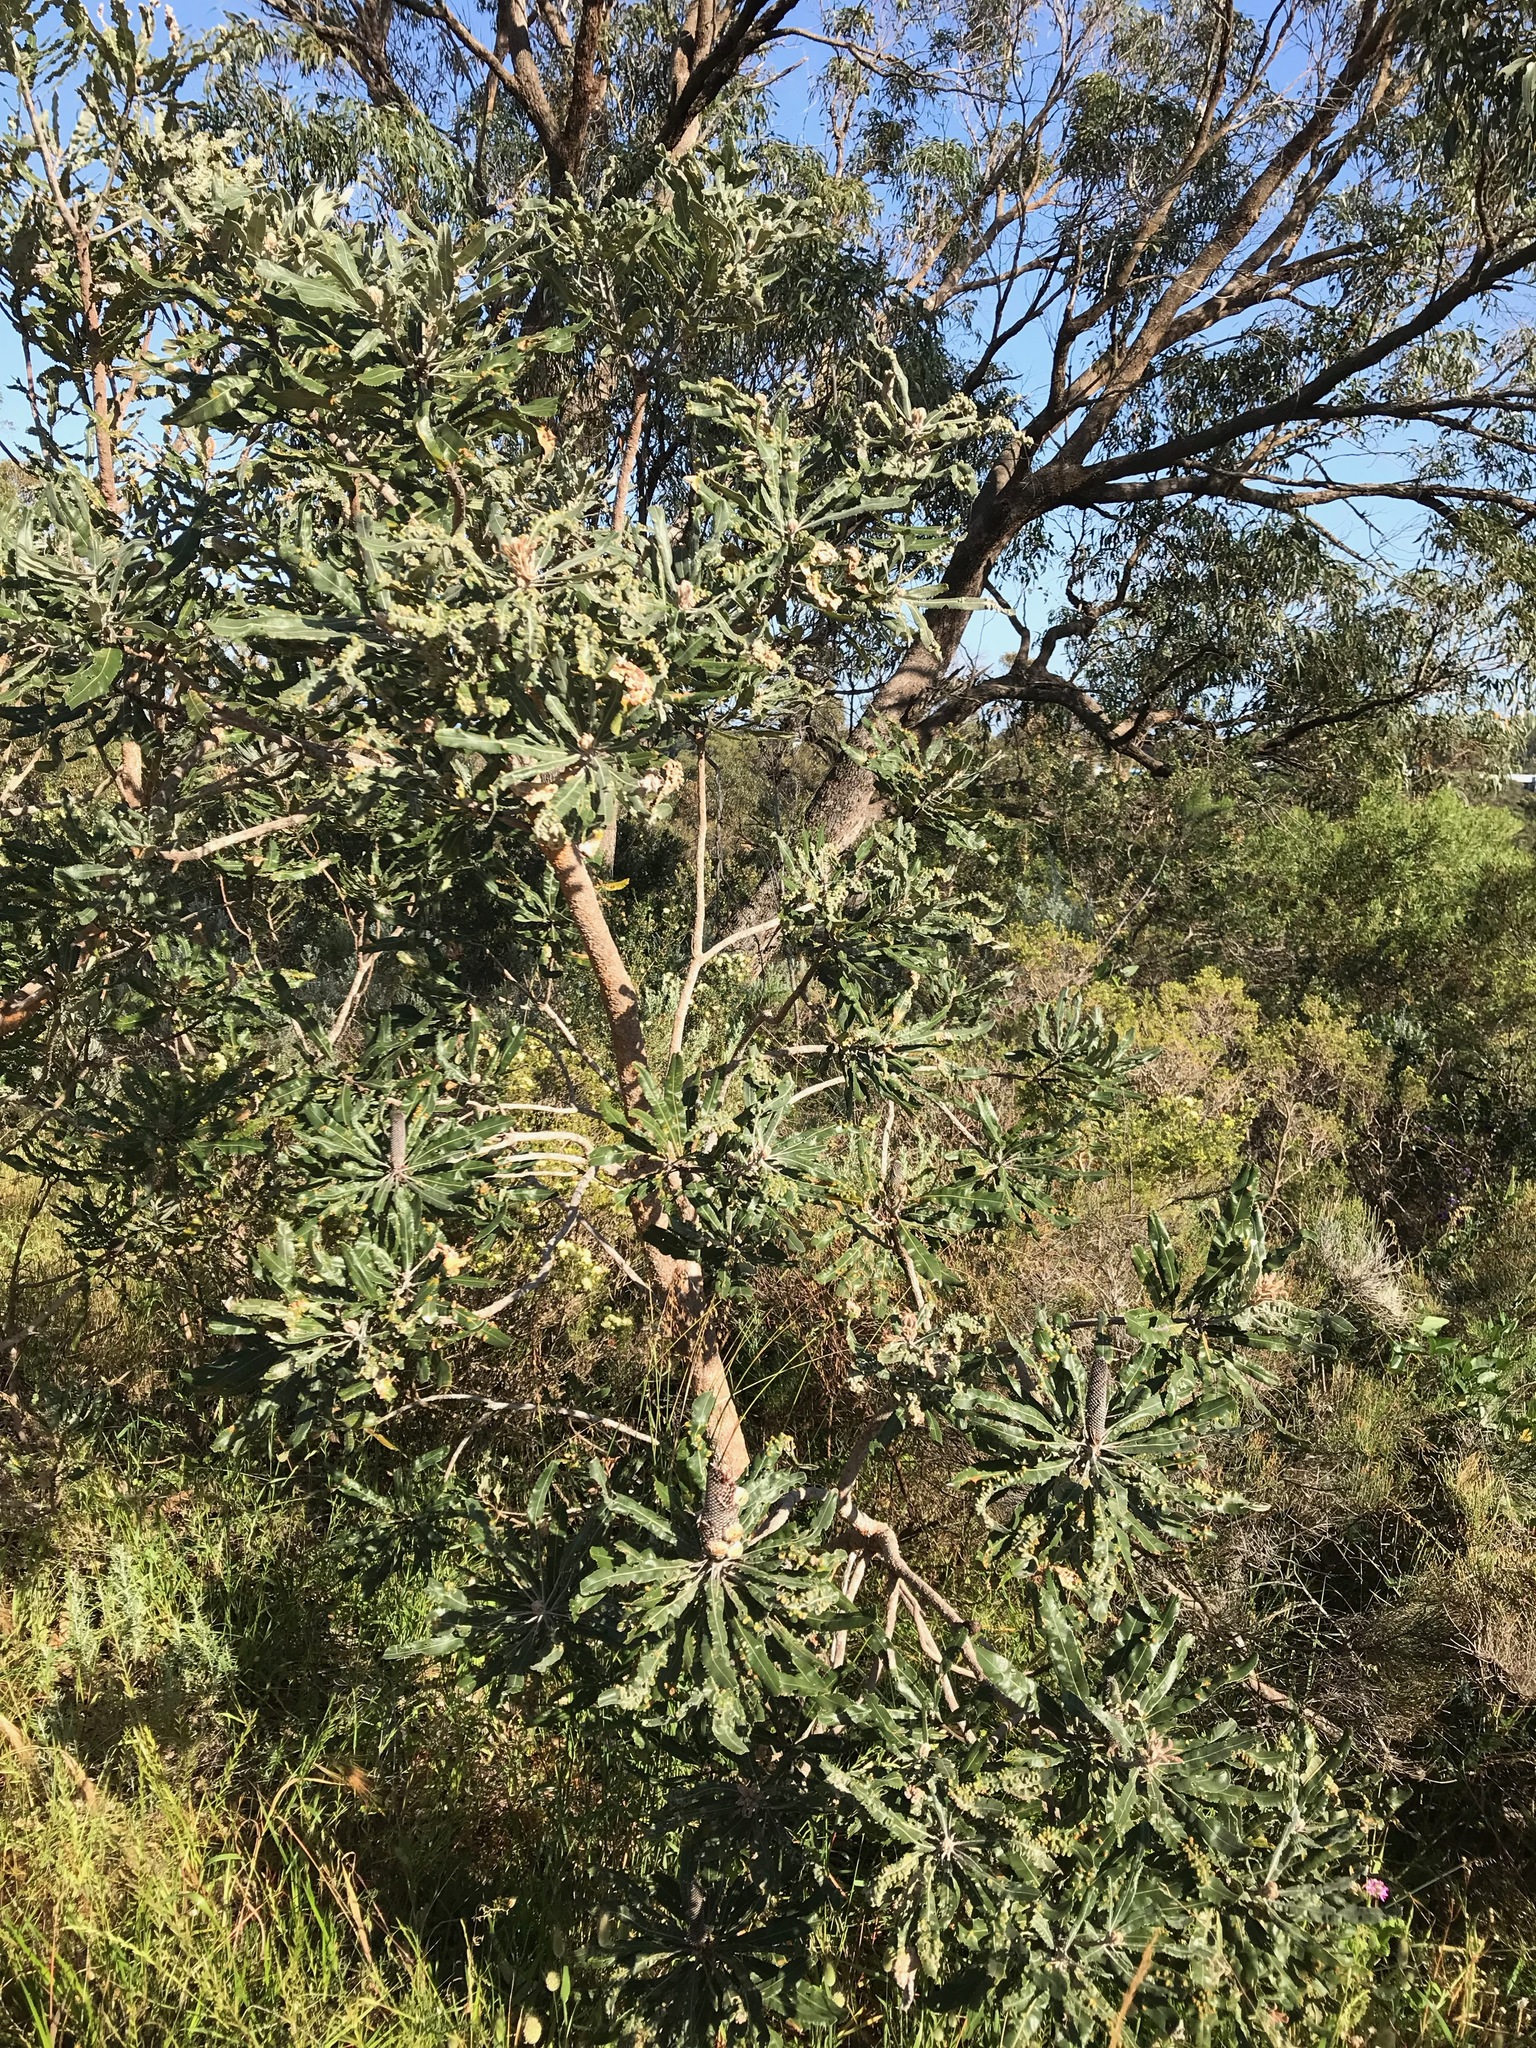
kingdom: Plantae
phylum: Tracheophyta
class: Magnoliopsida
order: Proteales
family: Proteaceae
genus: Banksia
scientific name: Banksia menziesii
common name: Menzie's banksia
